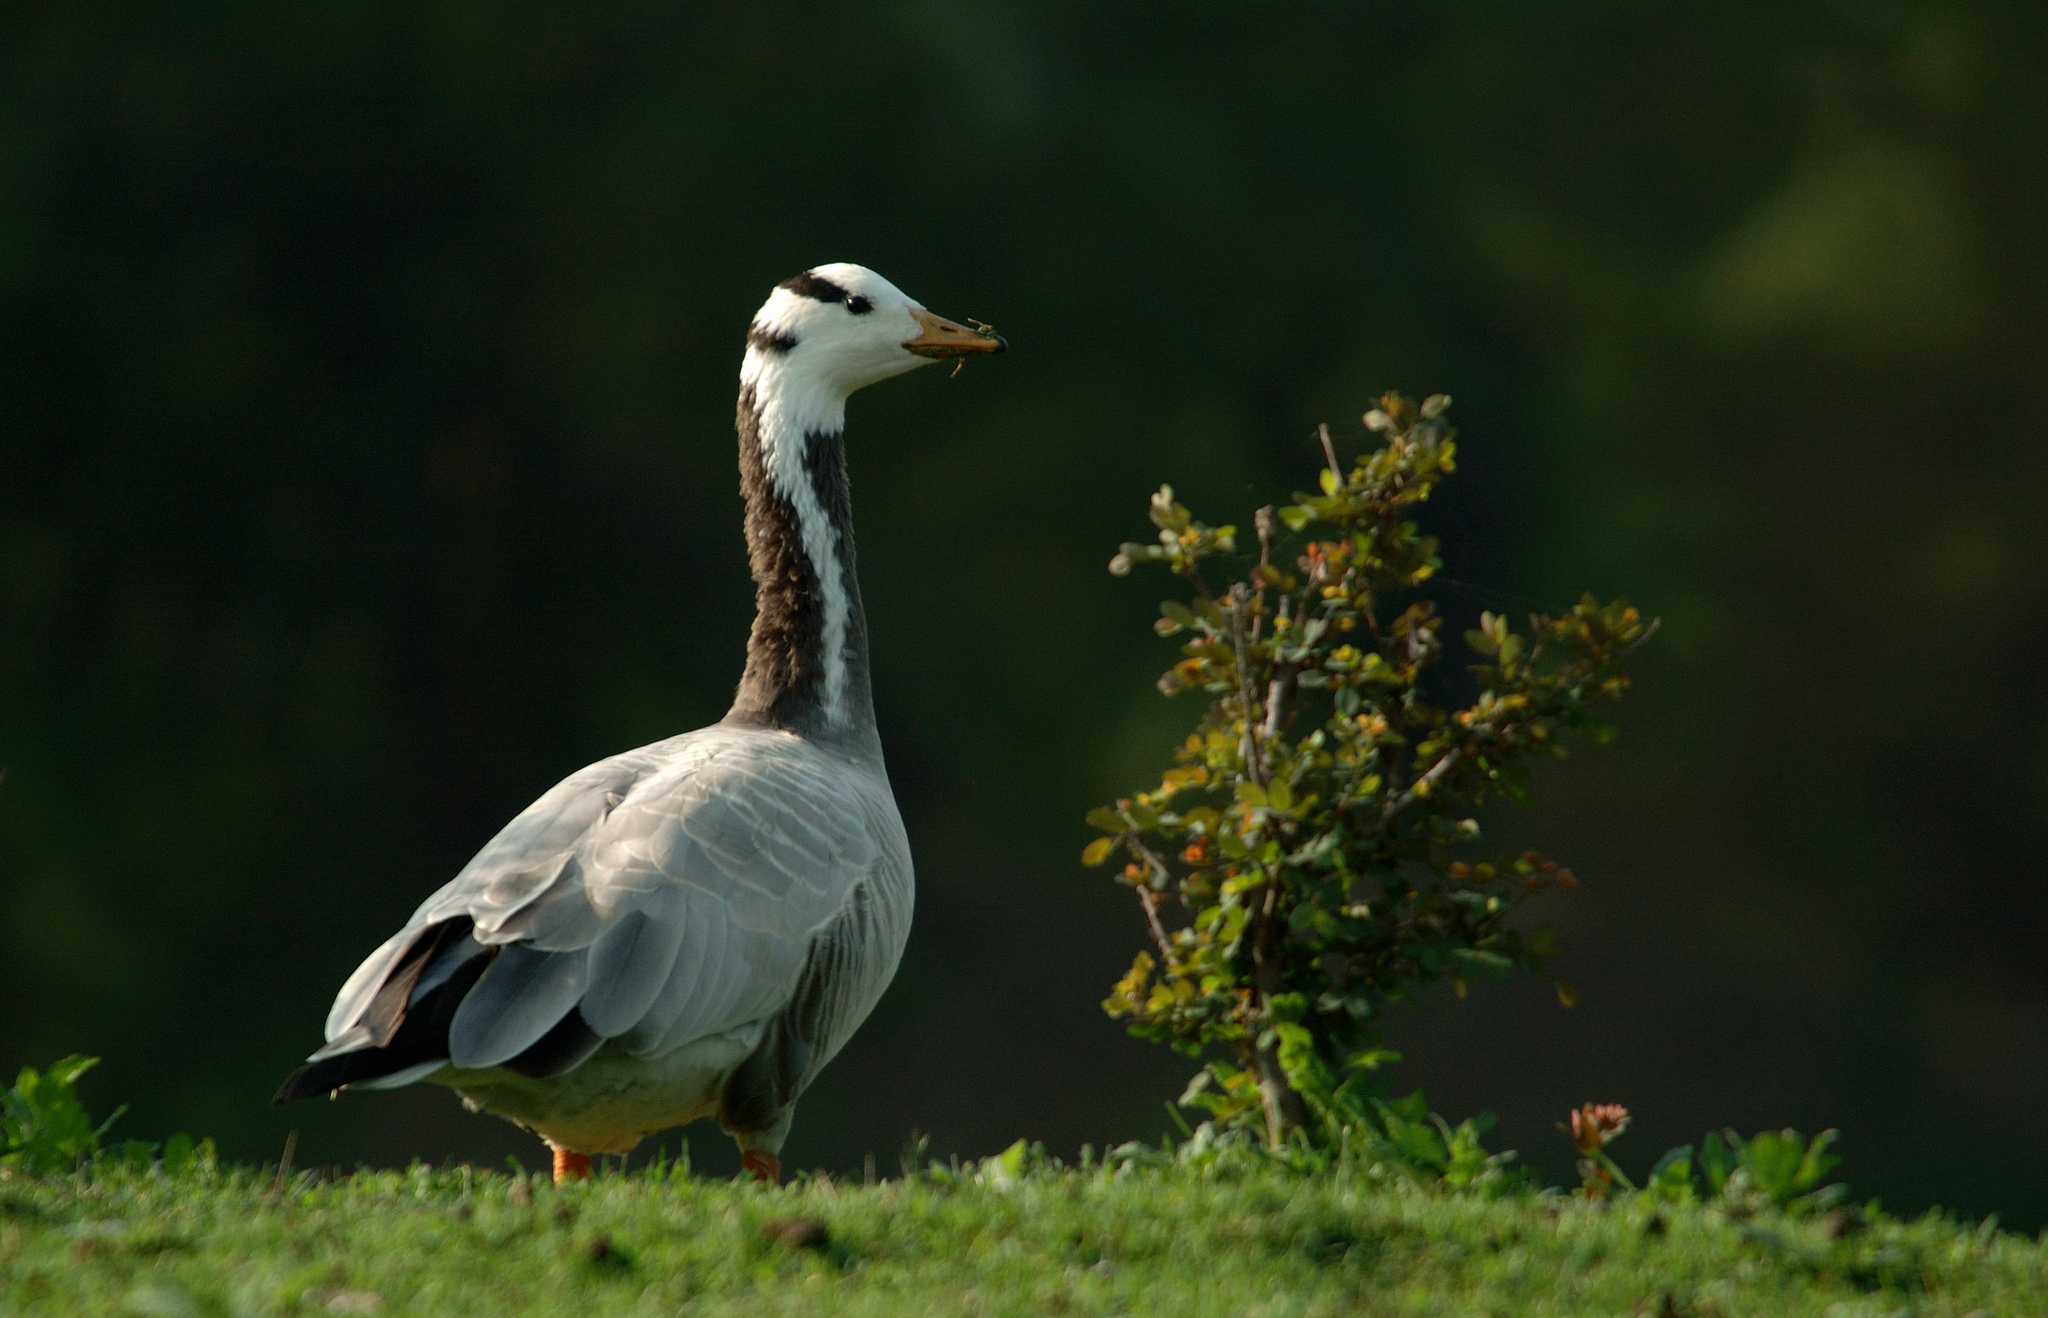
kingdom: Animalia
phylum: Chordata
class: Aves
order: Anseriformes
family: Anatidae
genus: Anser
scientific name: Anser indicus
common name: Bar-headed goose
